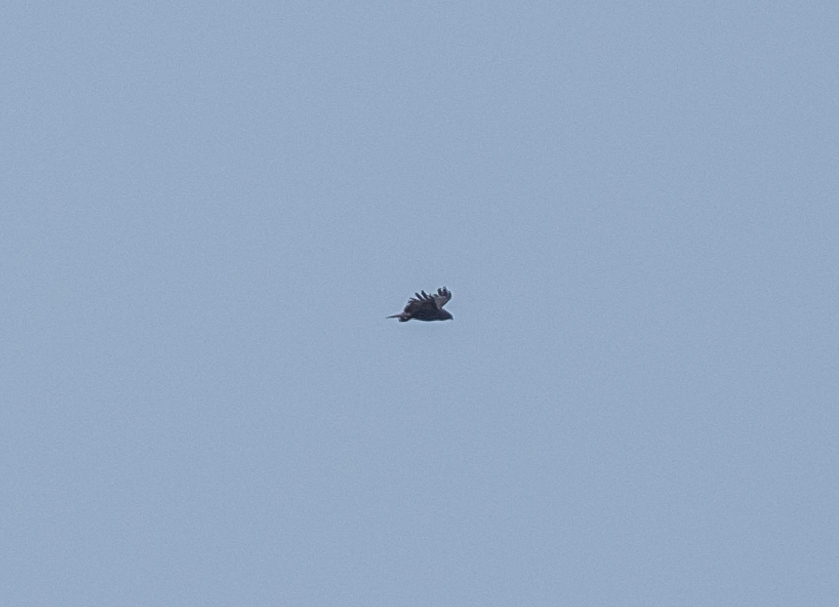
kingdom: Animalia
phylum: Chordata
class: Aves
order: Accipitriformes
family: Accipitridae
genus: Buteo
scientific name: Buteo buteo
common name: Common buzzard
